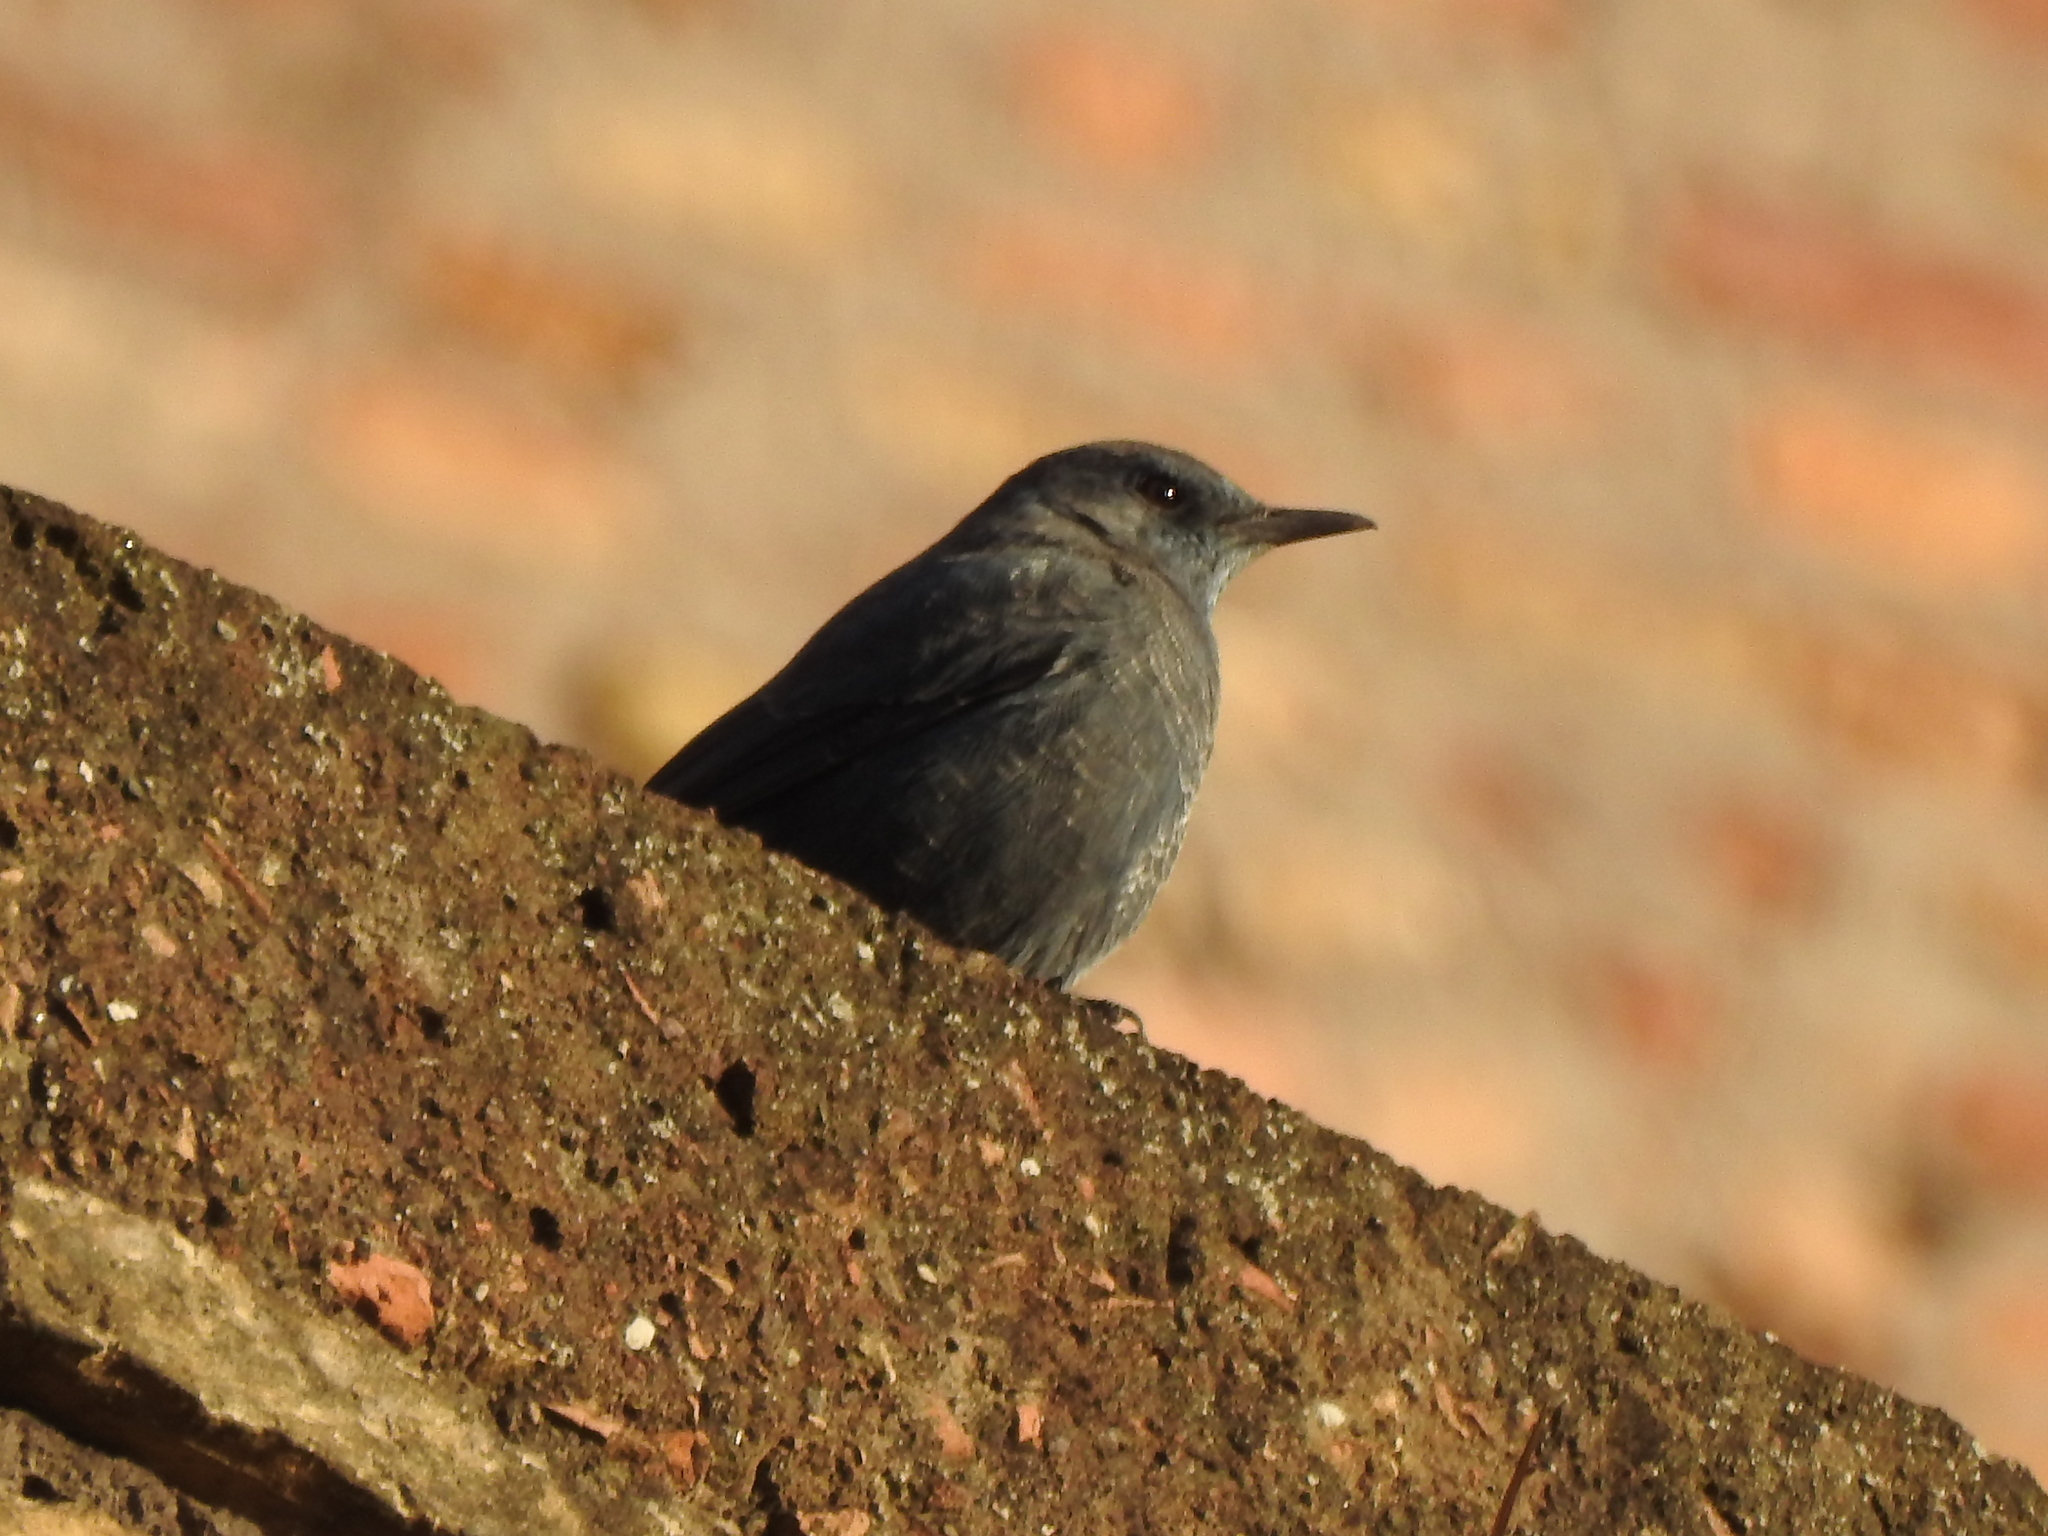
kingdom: Animalia
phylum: Chordata
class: Aves
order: Passeriformes
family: Muscicapidae
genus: Monticola
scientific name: Monticola solitarius
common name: Blue rock thrush
